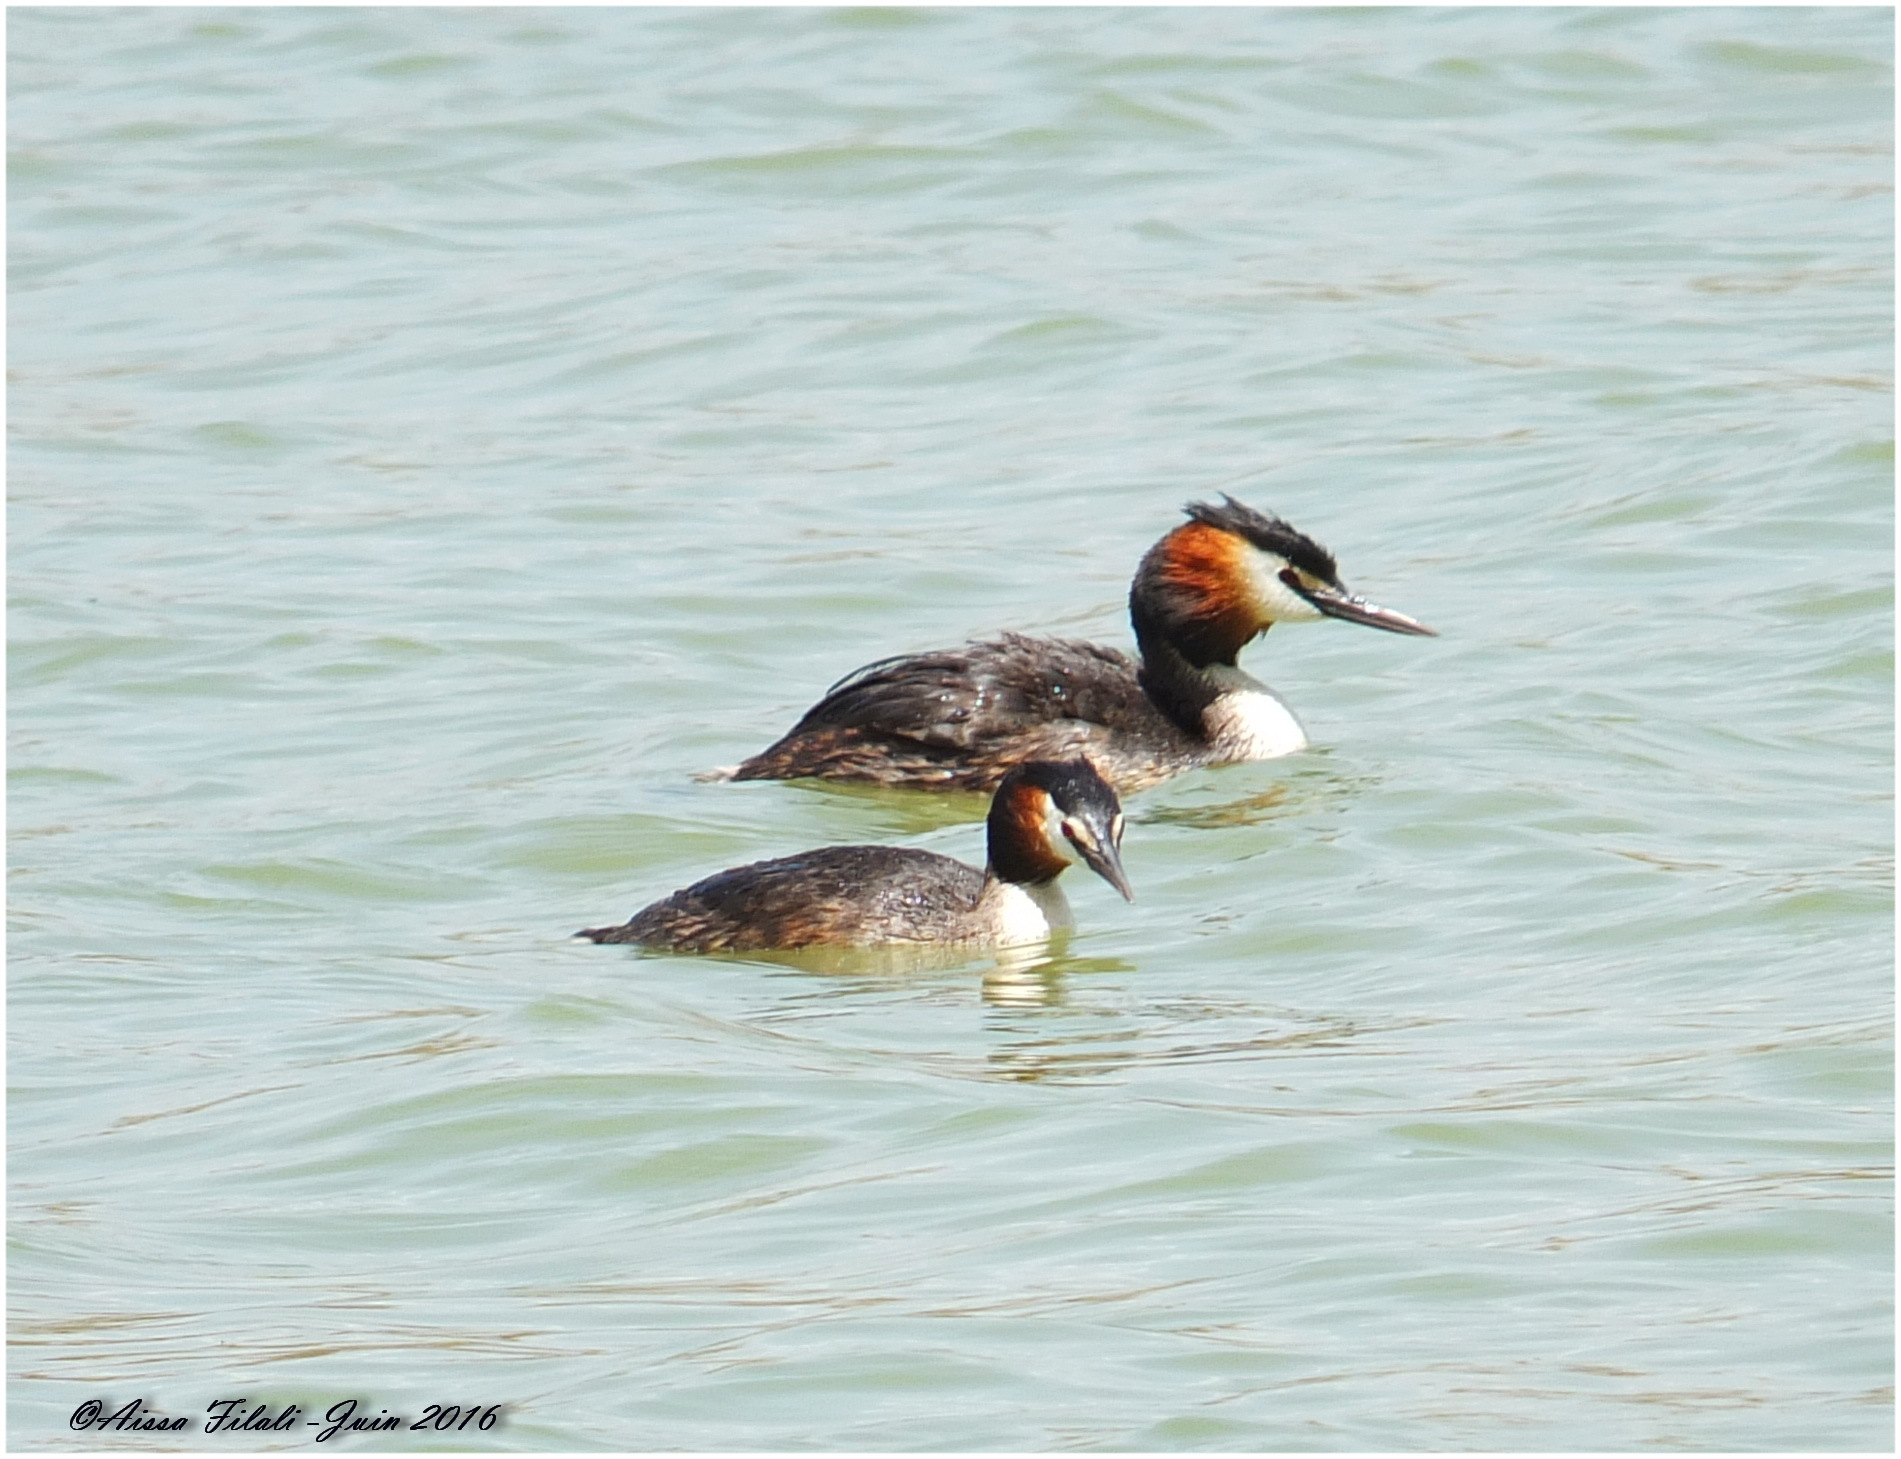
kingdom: Animalia
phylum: Chordata
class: Aves
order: Podicipediformes
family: Podicipedidae
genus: Podiceps
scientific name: Podiceps cristatus
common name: Great crested grebe
